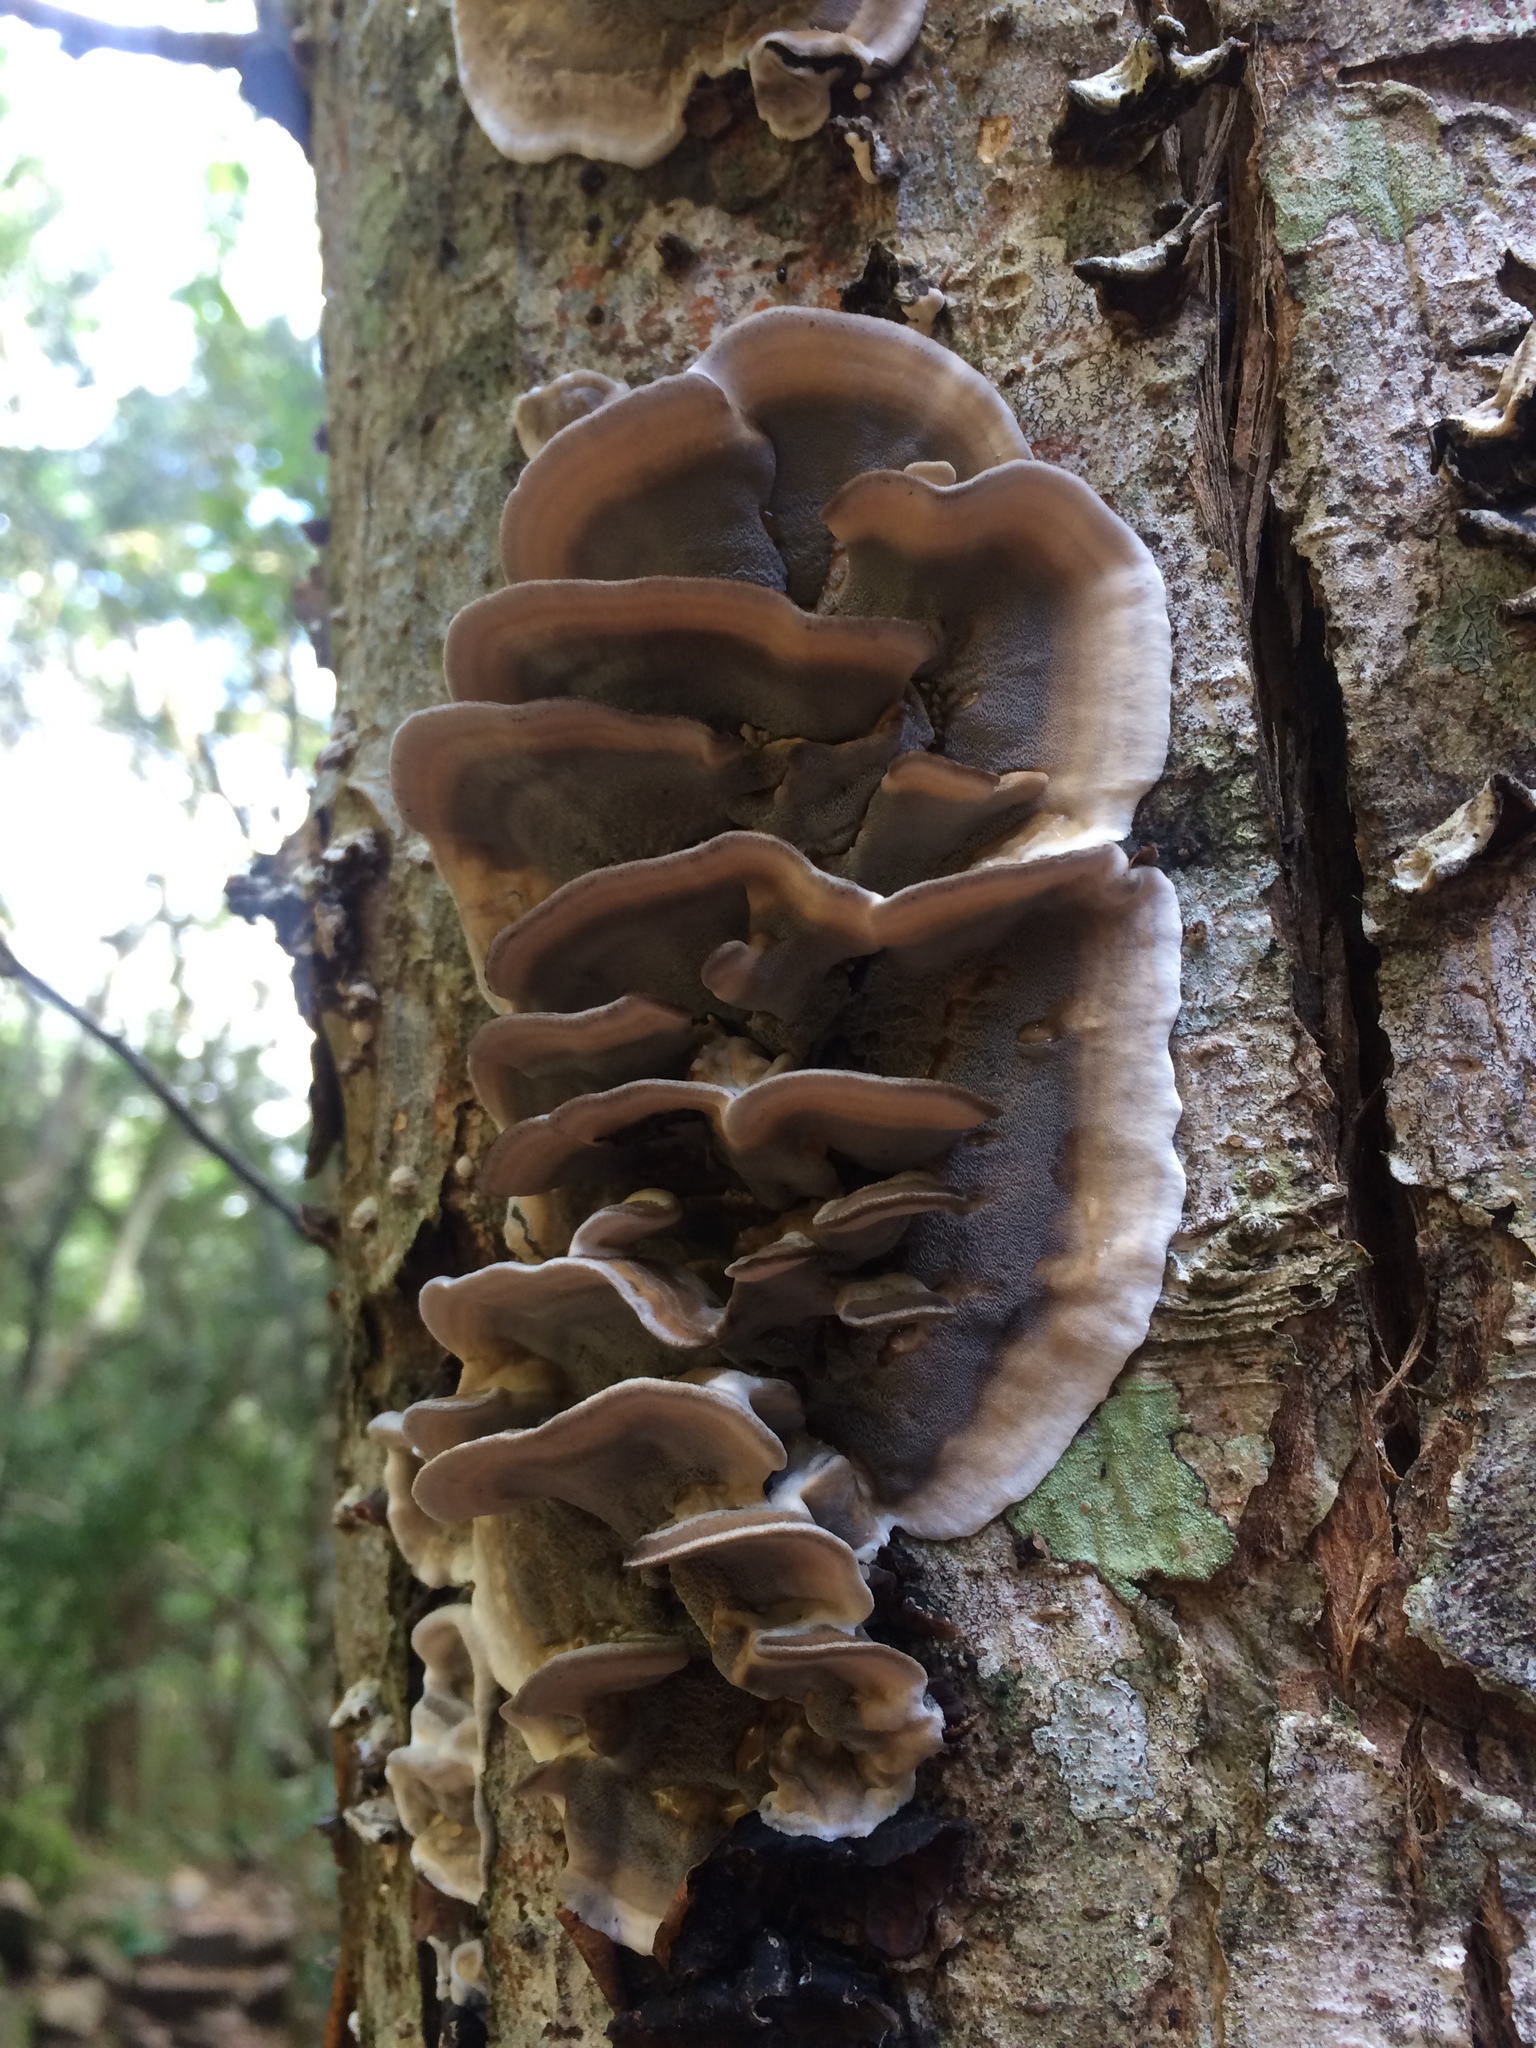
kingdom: Fungi
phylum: Basidiomycota
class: Agaricomycetes
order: Polyporales
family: Phanerochaetaceae
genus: Bjerkandera
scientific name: Bjerkandera adusta
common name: Smoky bracket
